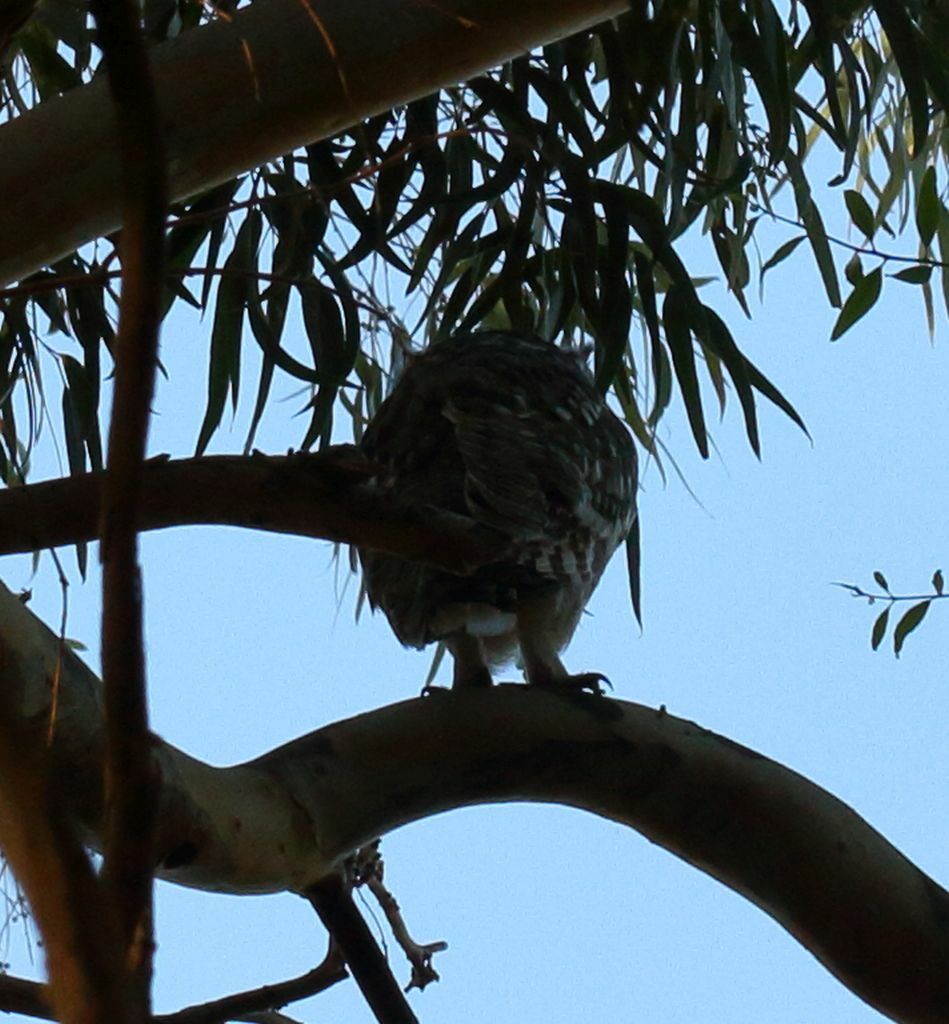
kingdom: Animalia
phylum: Chordata
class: Aves
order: Strigiformes
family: Strigidae
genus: Bubo
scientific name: Bubo africanus
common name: Spotted eagle-owl
